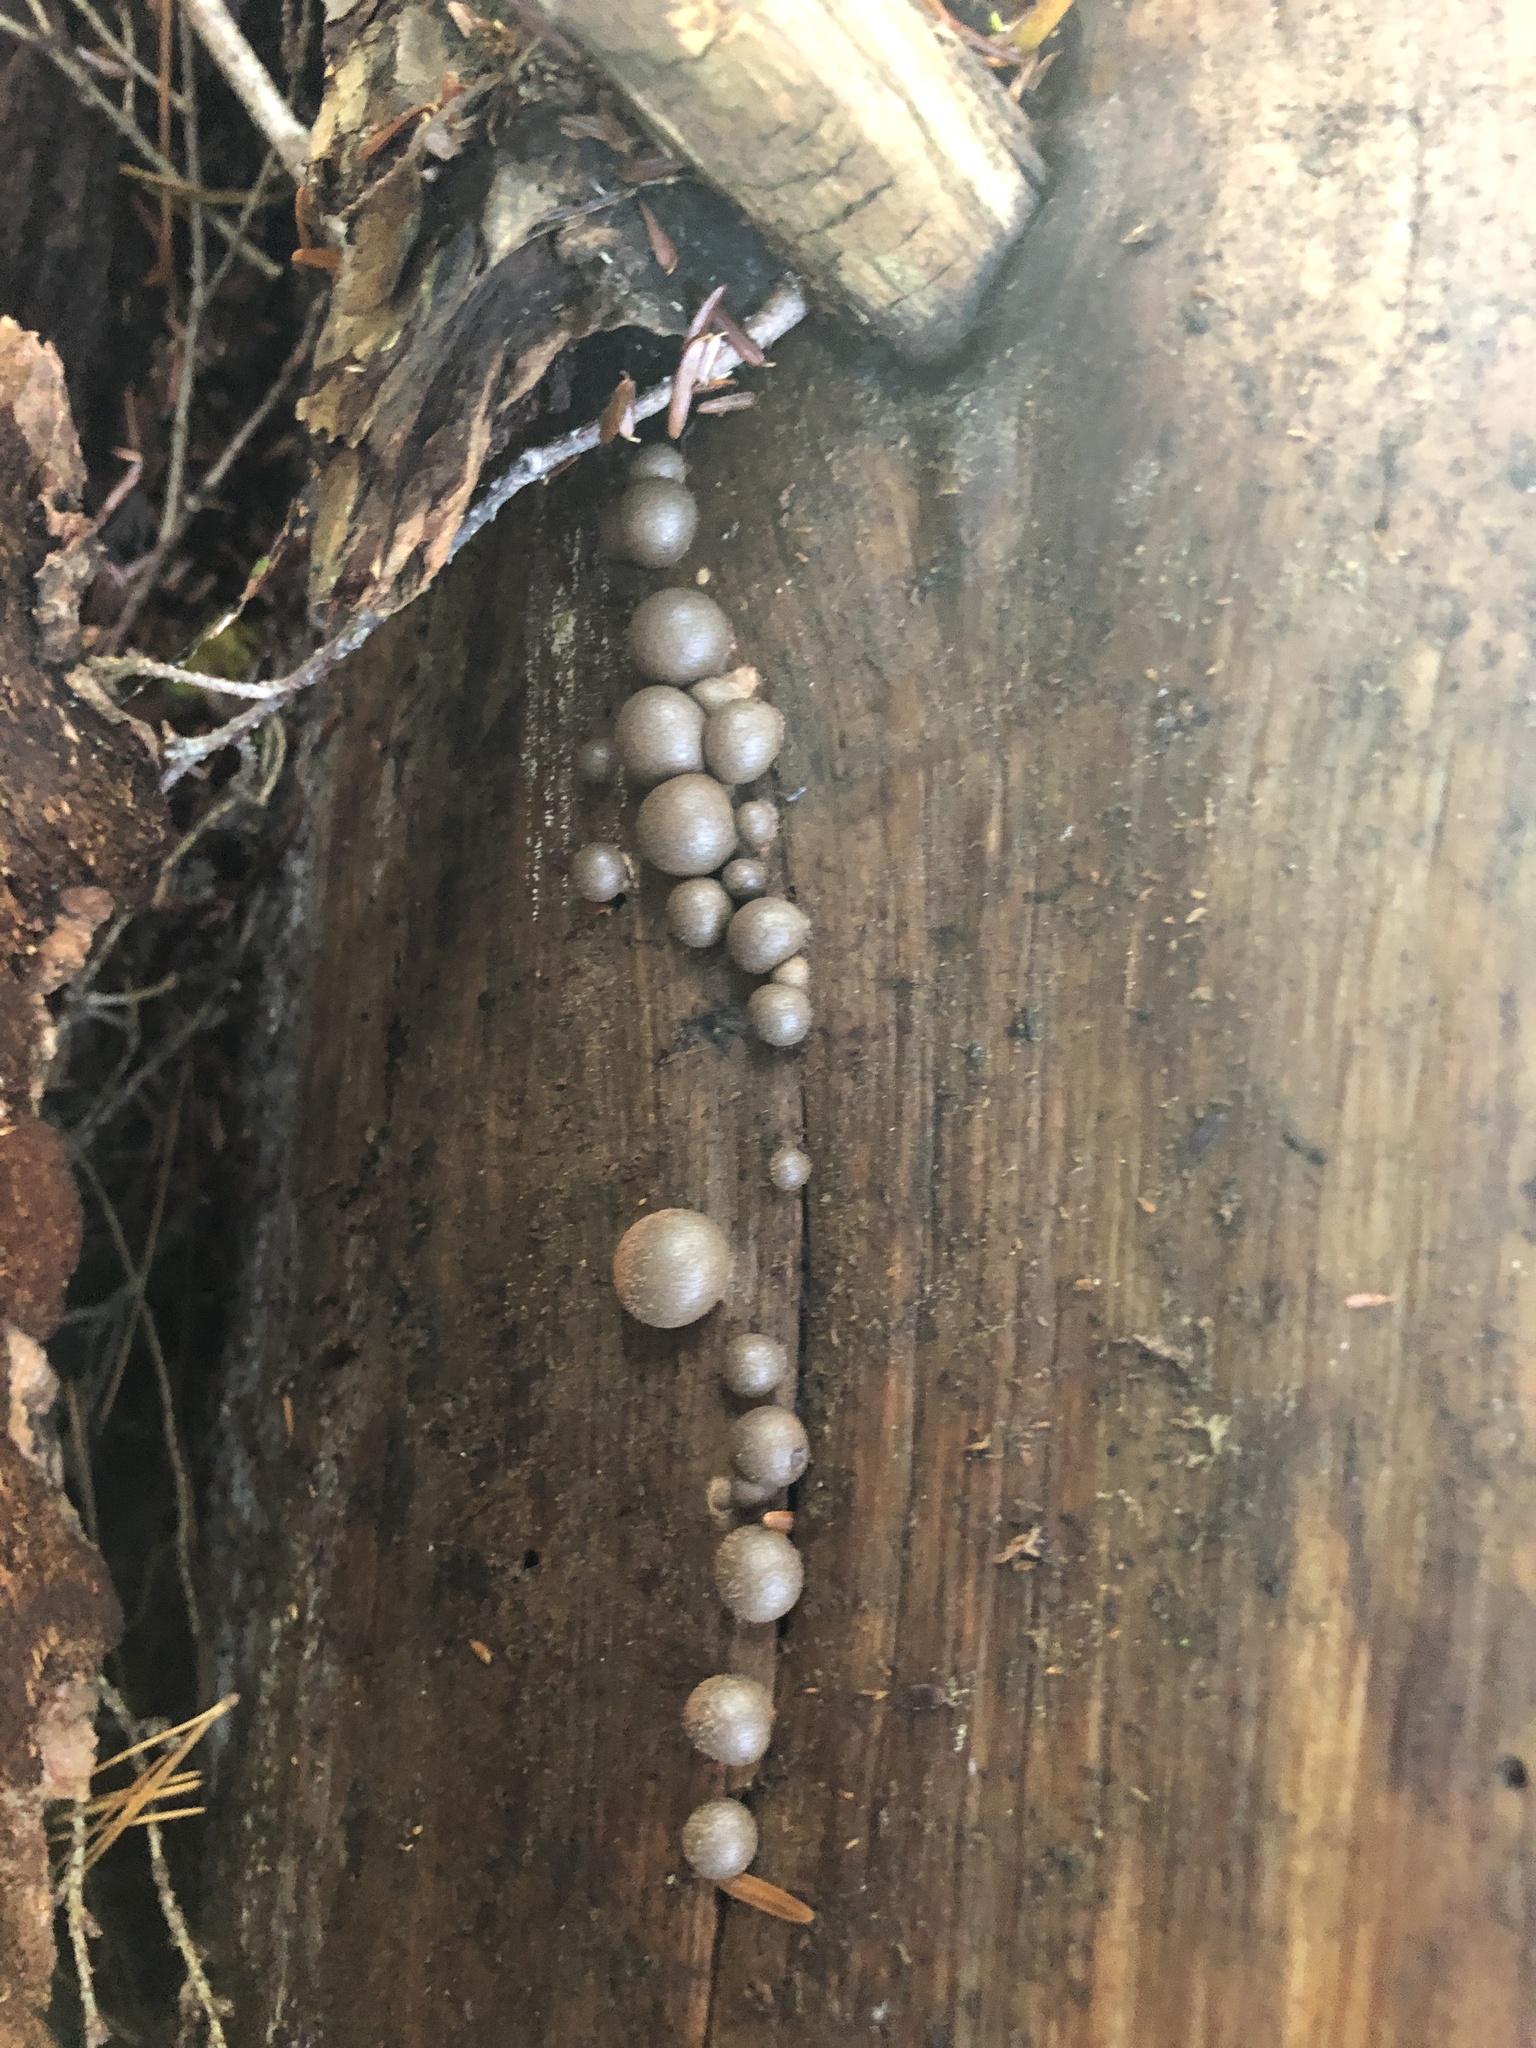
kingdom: Protozoa
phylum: Mycetozoa
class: Myxomycetes
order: Cribrariales
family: Tubiferaceae
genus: Lycogala
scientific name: Lycogala epidendrum
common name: Wolf's milk
